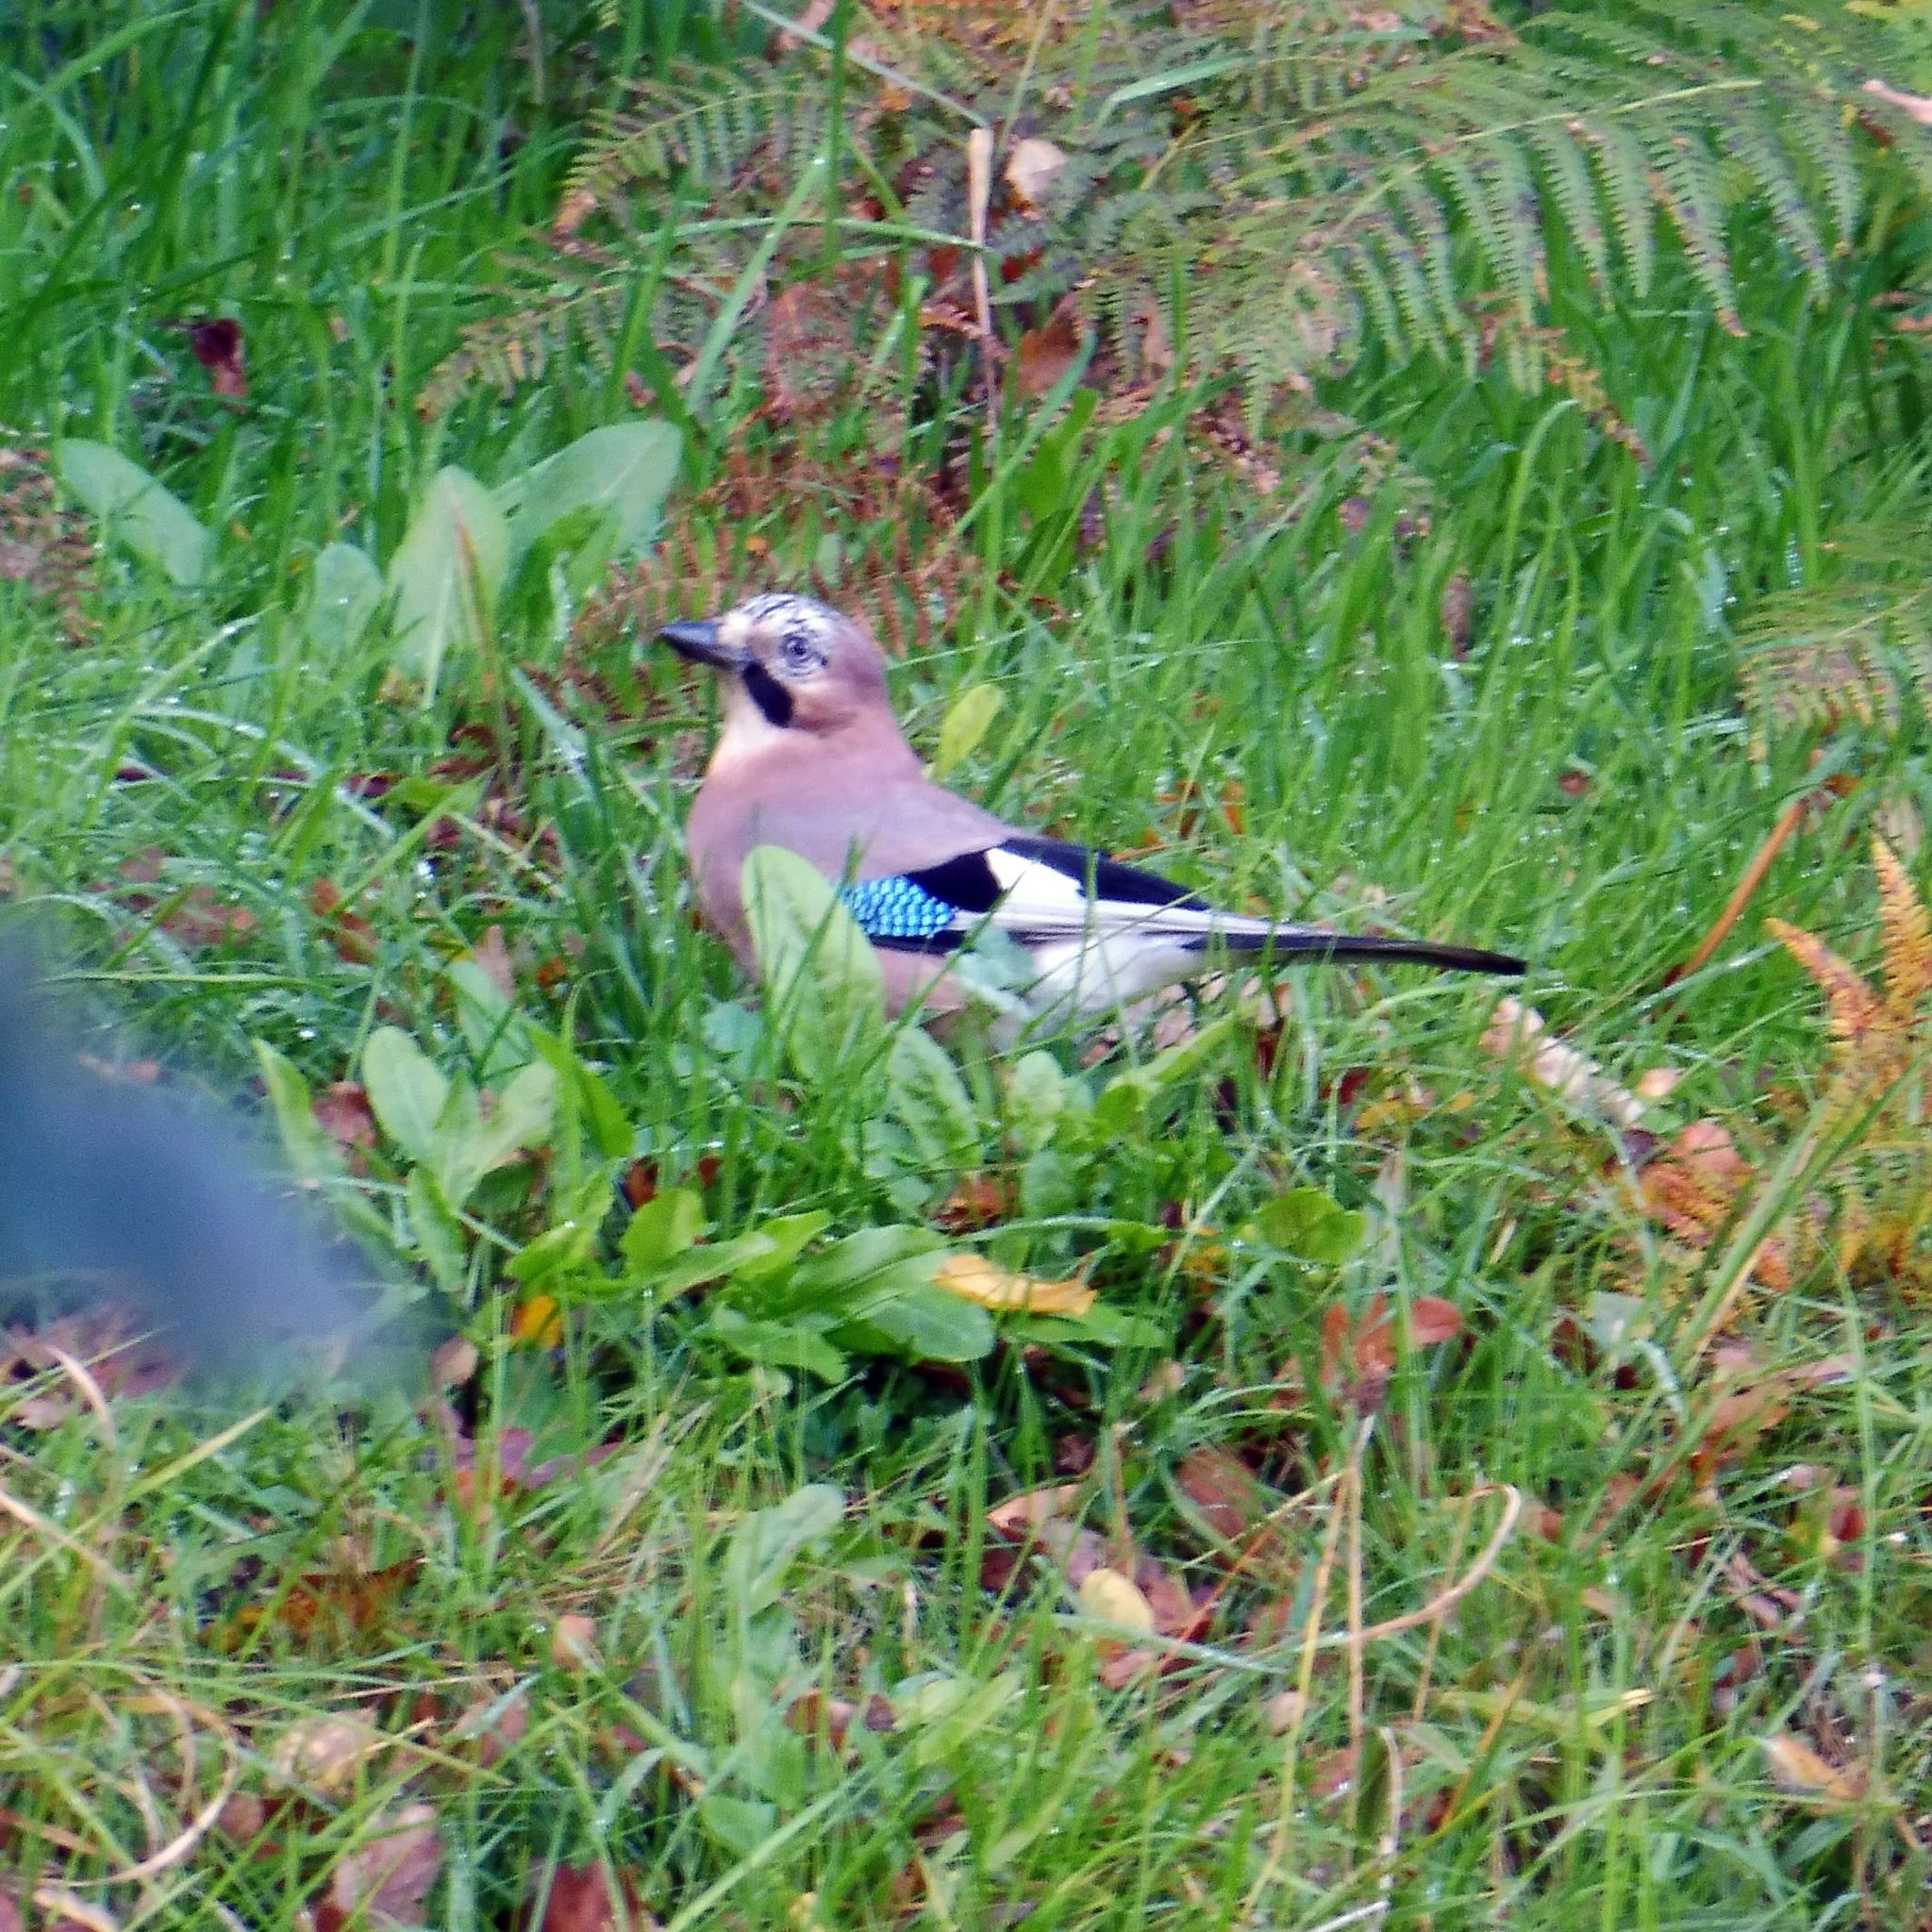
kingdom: Animalia
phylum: Chordata
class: Aves
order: Passeriformes
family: Corvidae
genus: Garrulus
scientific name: Garrulus glandarius
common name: Eurasian jay
